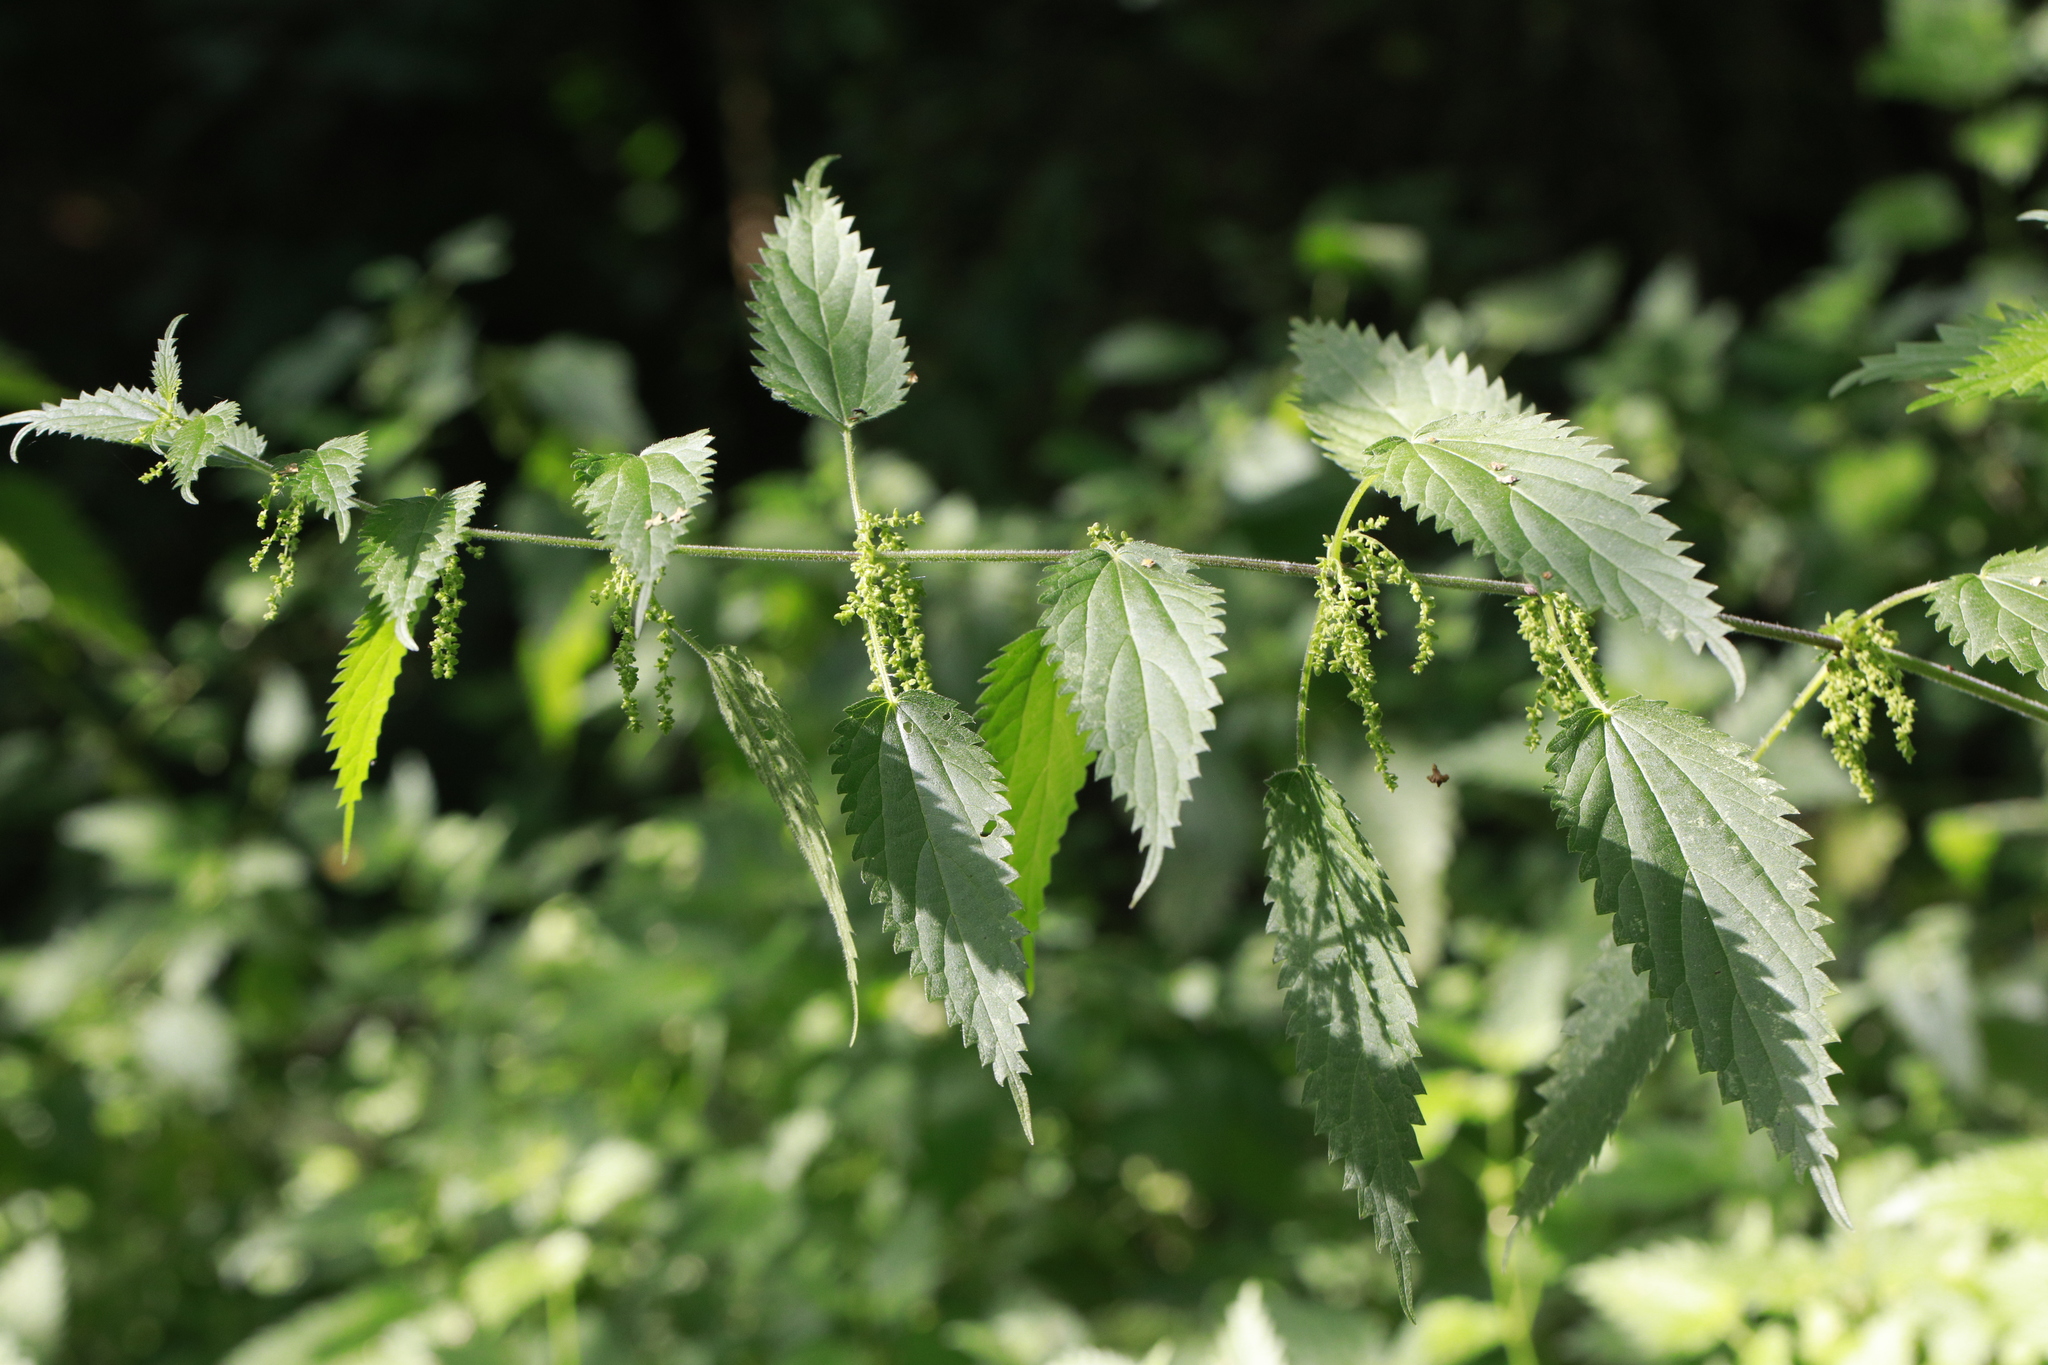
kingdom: Plantae
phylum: Tracheophyta
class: Magnoliopsida
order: Rosales
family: Urticaceae
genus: Urtica
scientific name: Urtica dioica
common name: Common nettle
